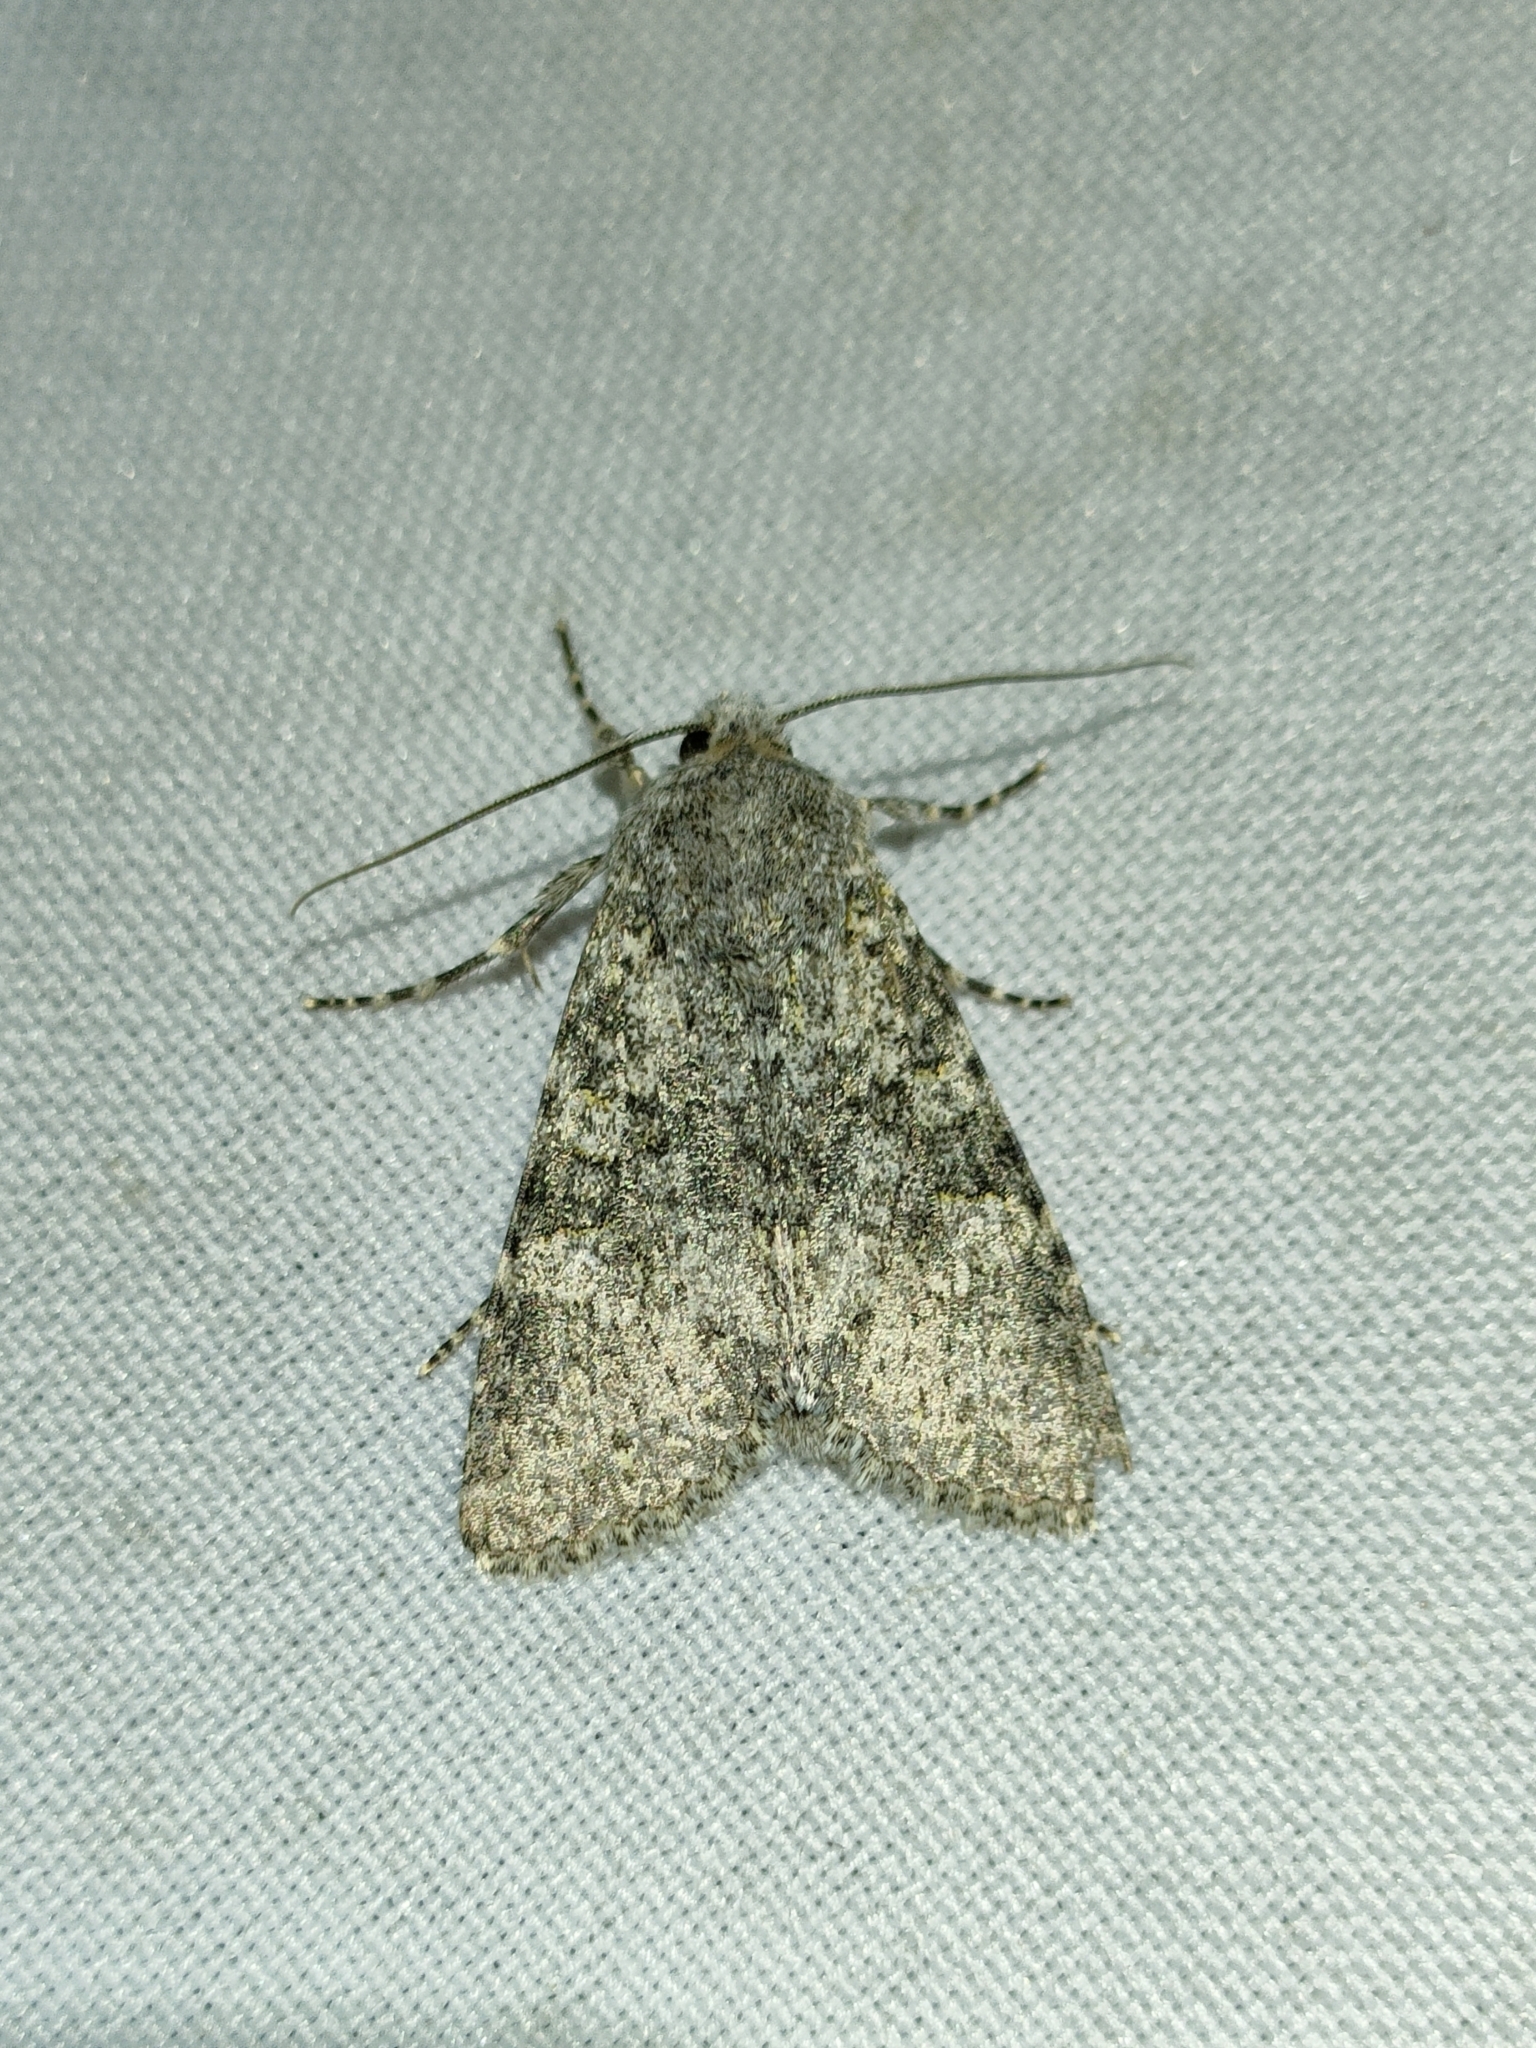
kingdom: Animalia
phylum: Arthropoda
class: Insecta
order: Lepidoptera
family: Noctuidae
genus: Polymixis
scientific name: Polymixis flavicincta
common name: Large ranunculus
